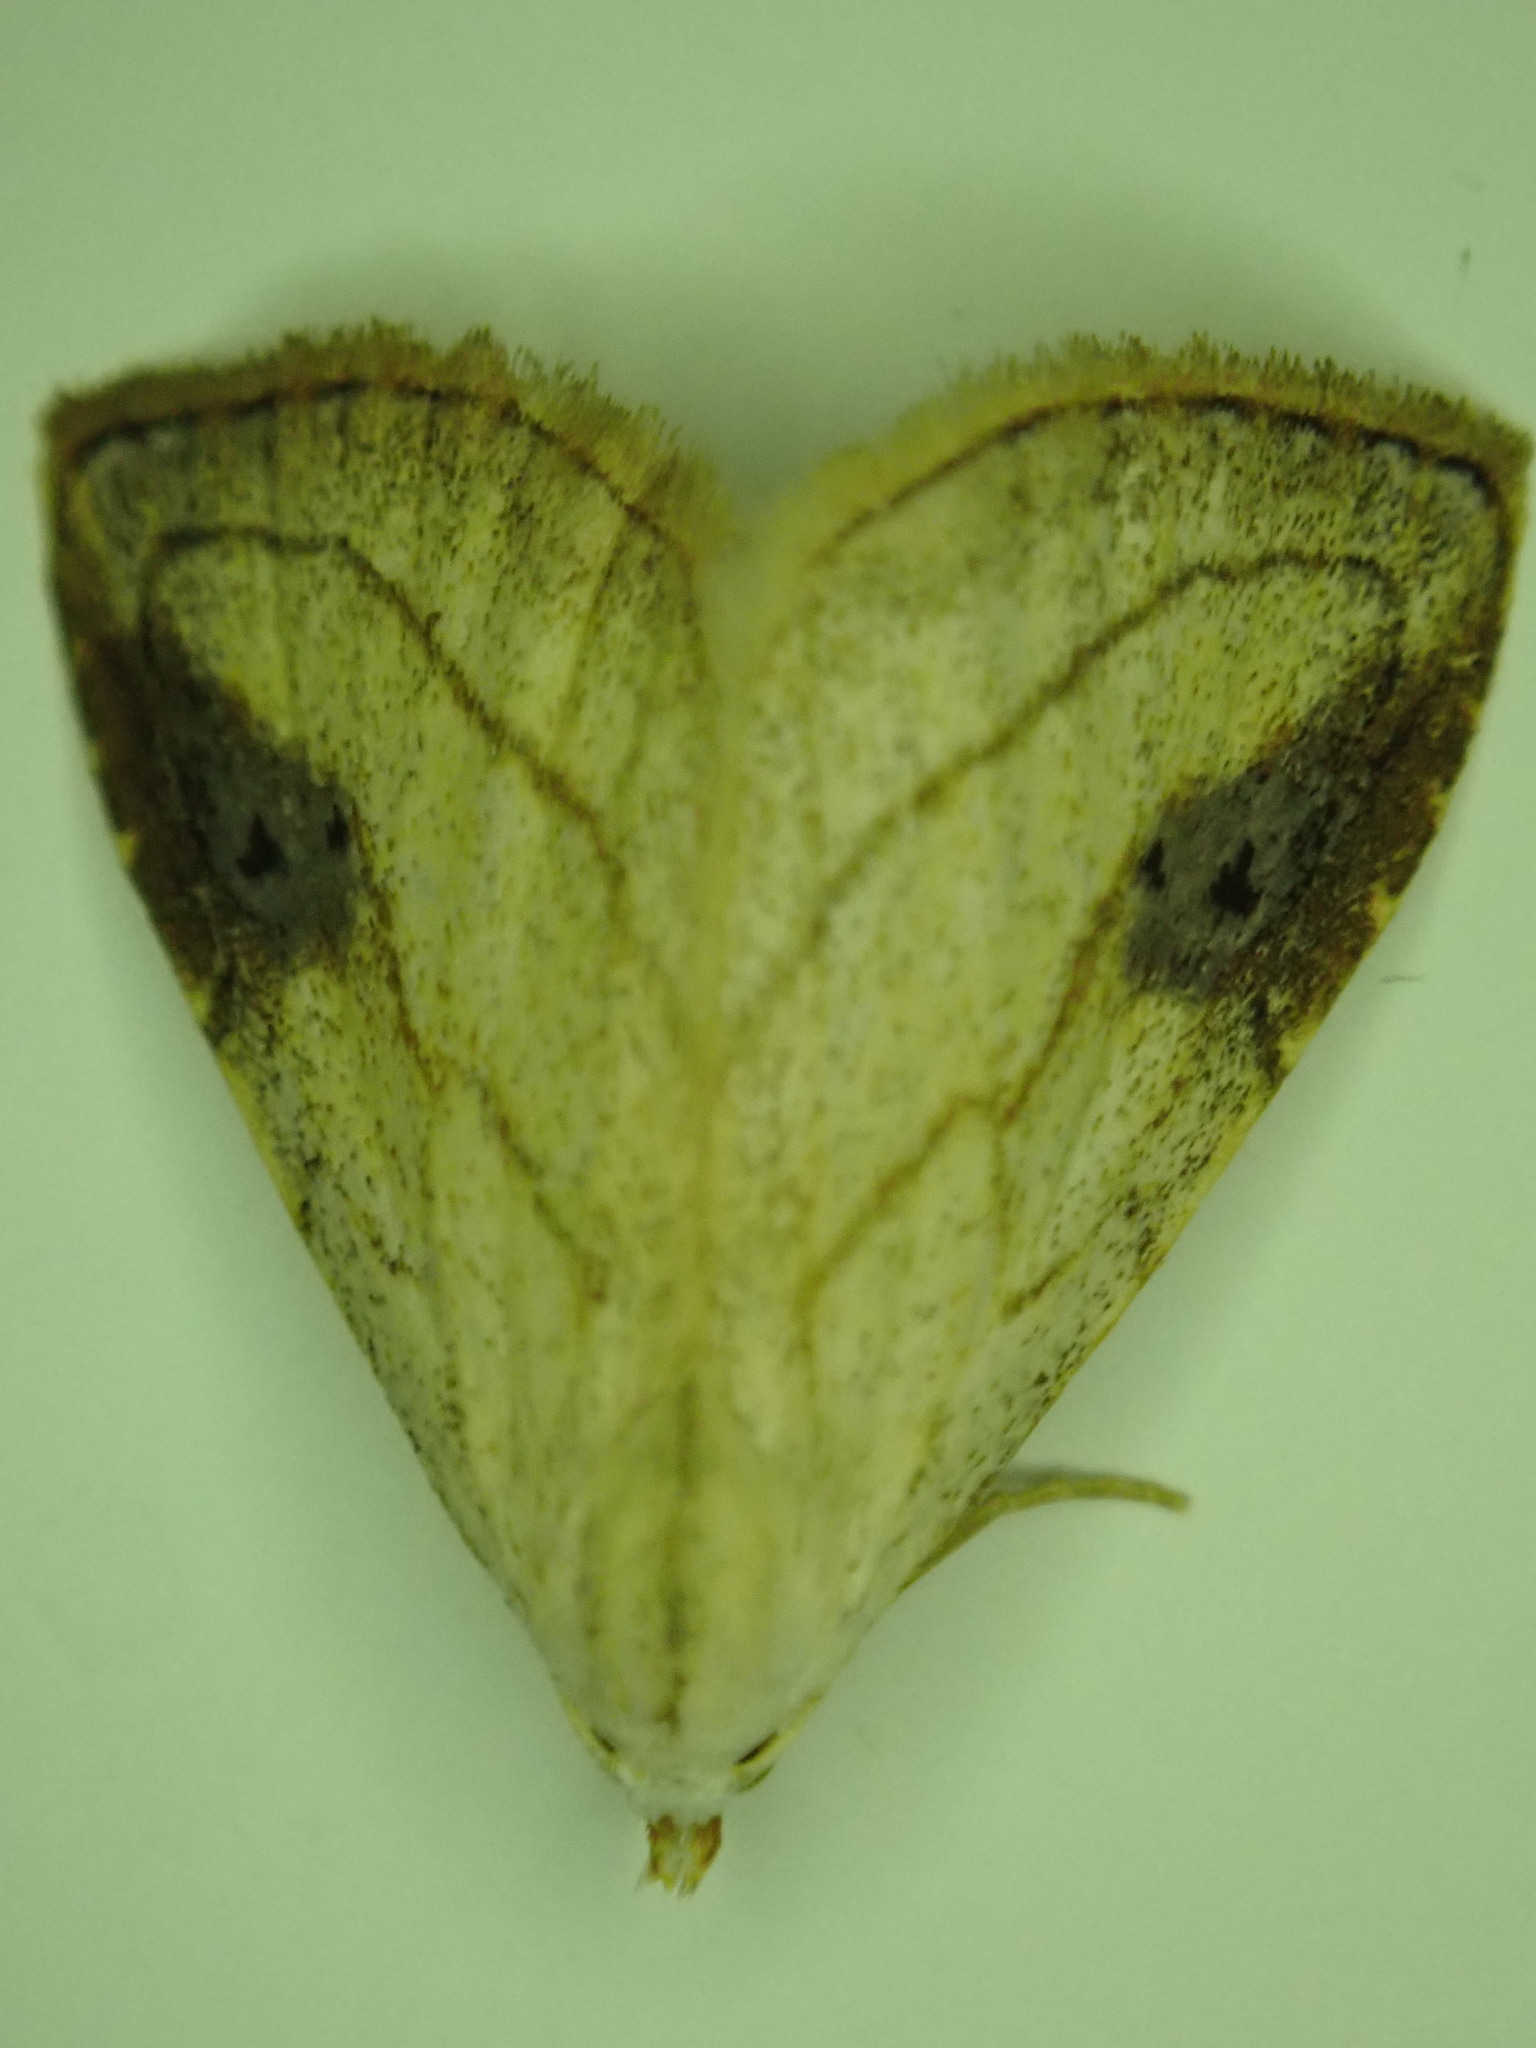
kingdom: Animalia
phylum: Arthropoda
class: Insecta
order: Lepidoptera
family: Erebidae
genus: Rivula
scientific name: Rivula propinqualis
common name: Spotted grass moth
